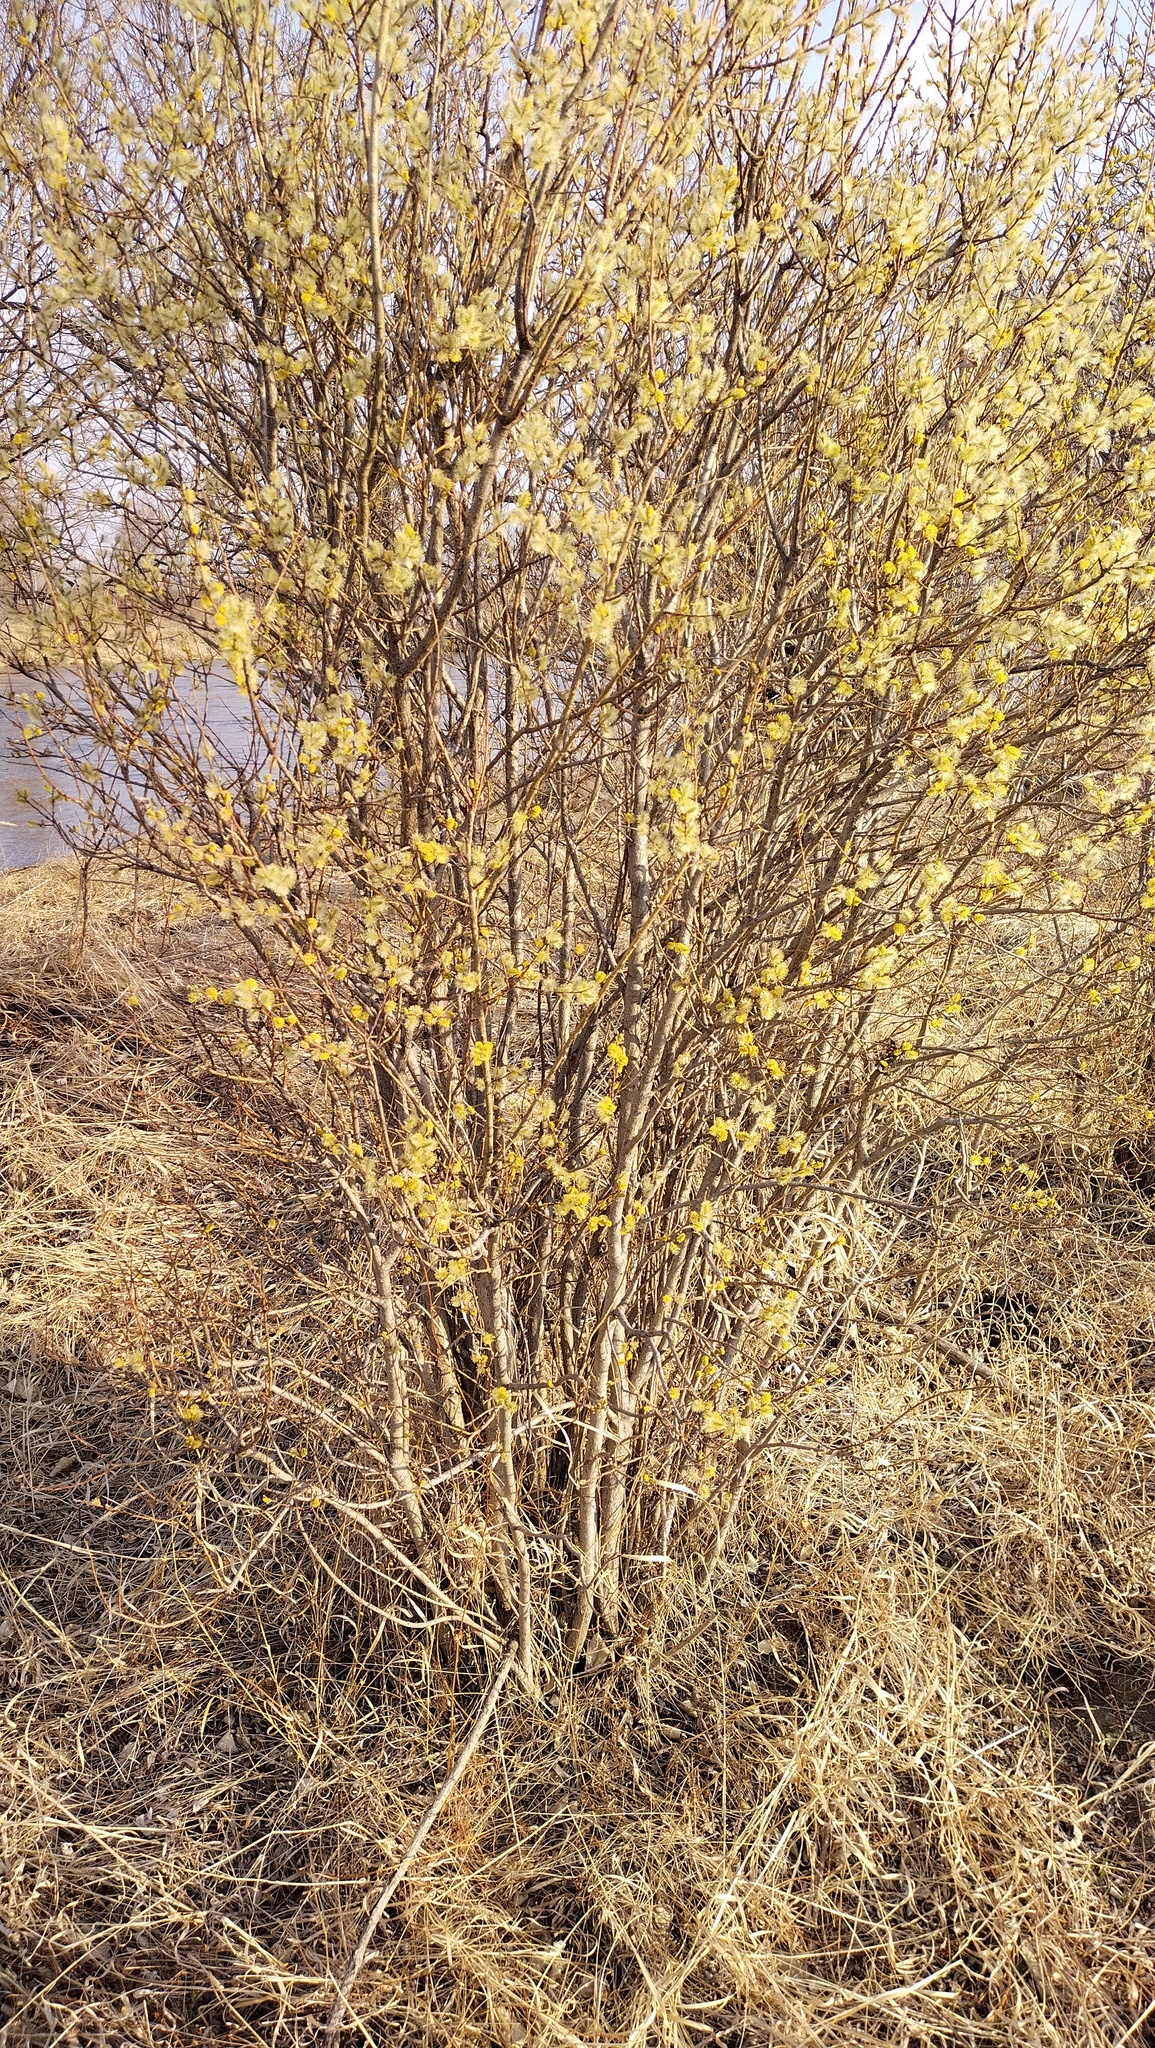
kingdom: Plantae
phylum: Tracheophyta
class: Magnoliopsida
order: Malpighiales
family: Salicaceae
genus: Salix
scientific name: Salix caprea
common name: Goat willow
